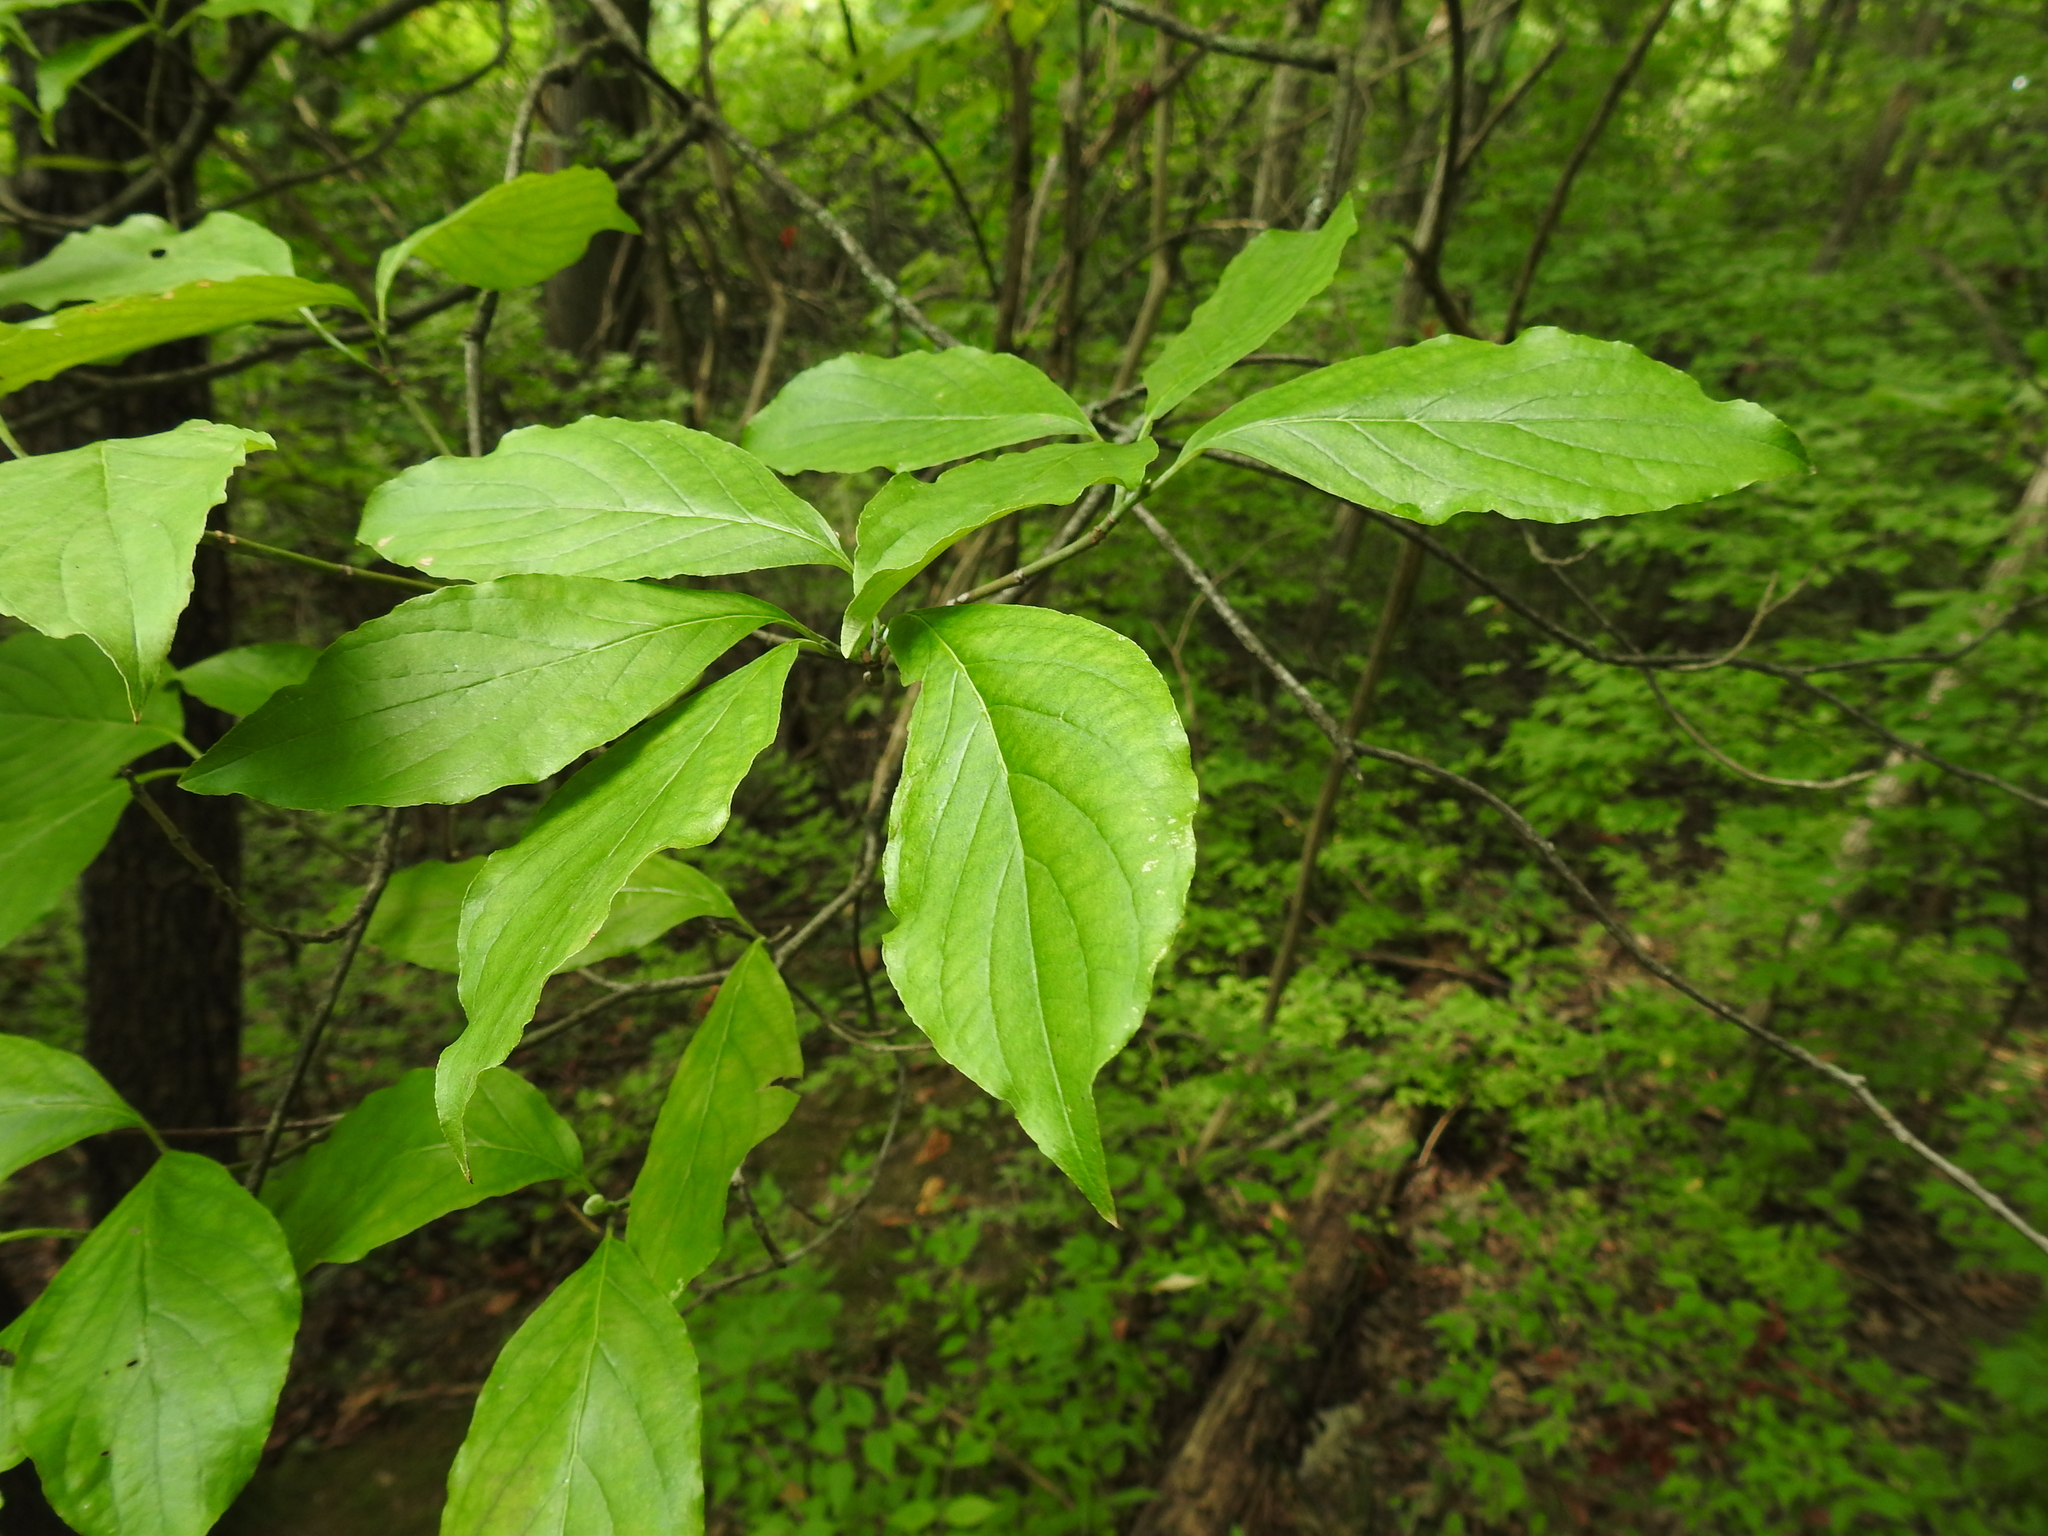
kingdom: Plantae
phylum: Tracheophyta
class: Magnoliopsida
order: Cornales
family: Cornaceae
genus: Cornus
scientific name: Cornus florida
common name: Flowering dogwood
